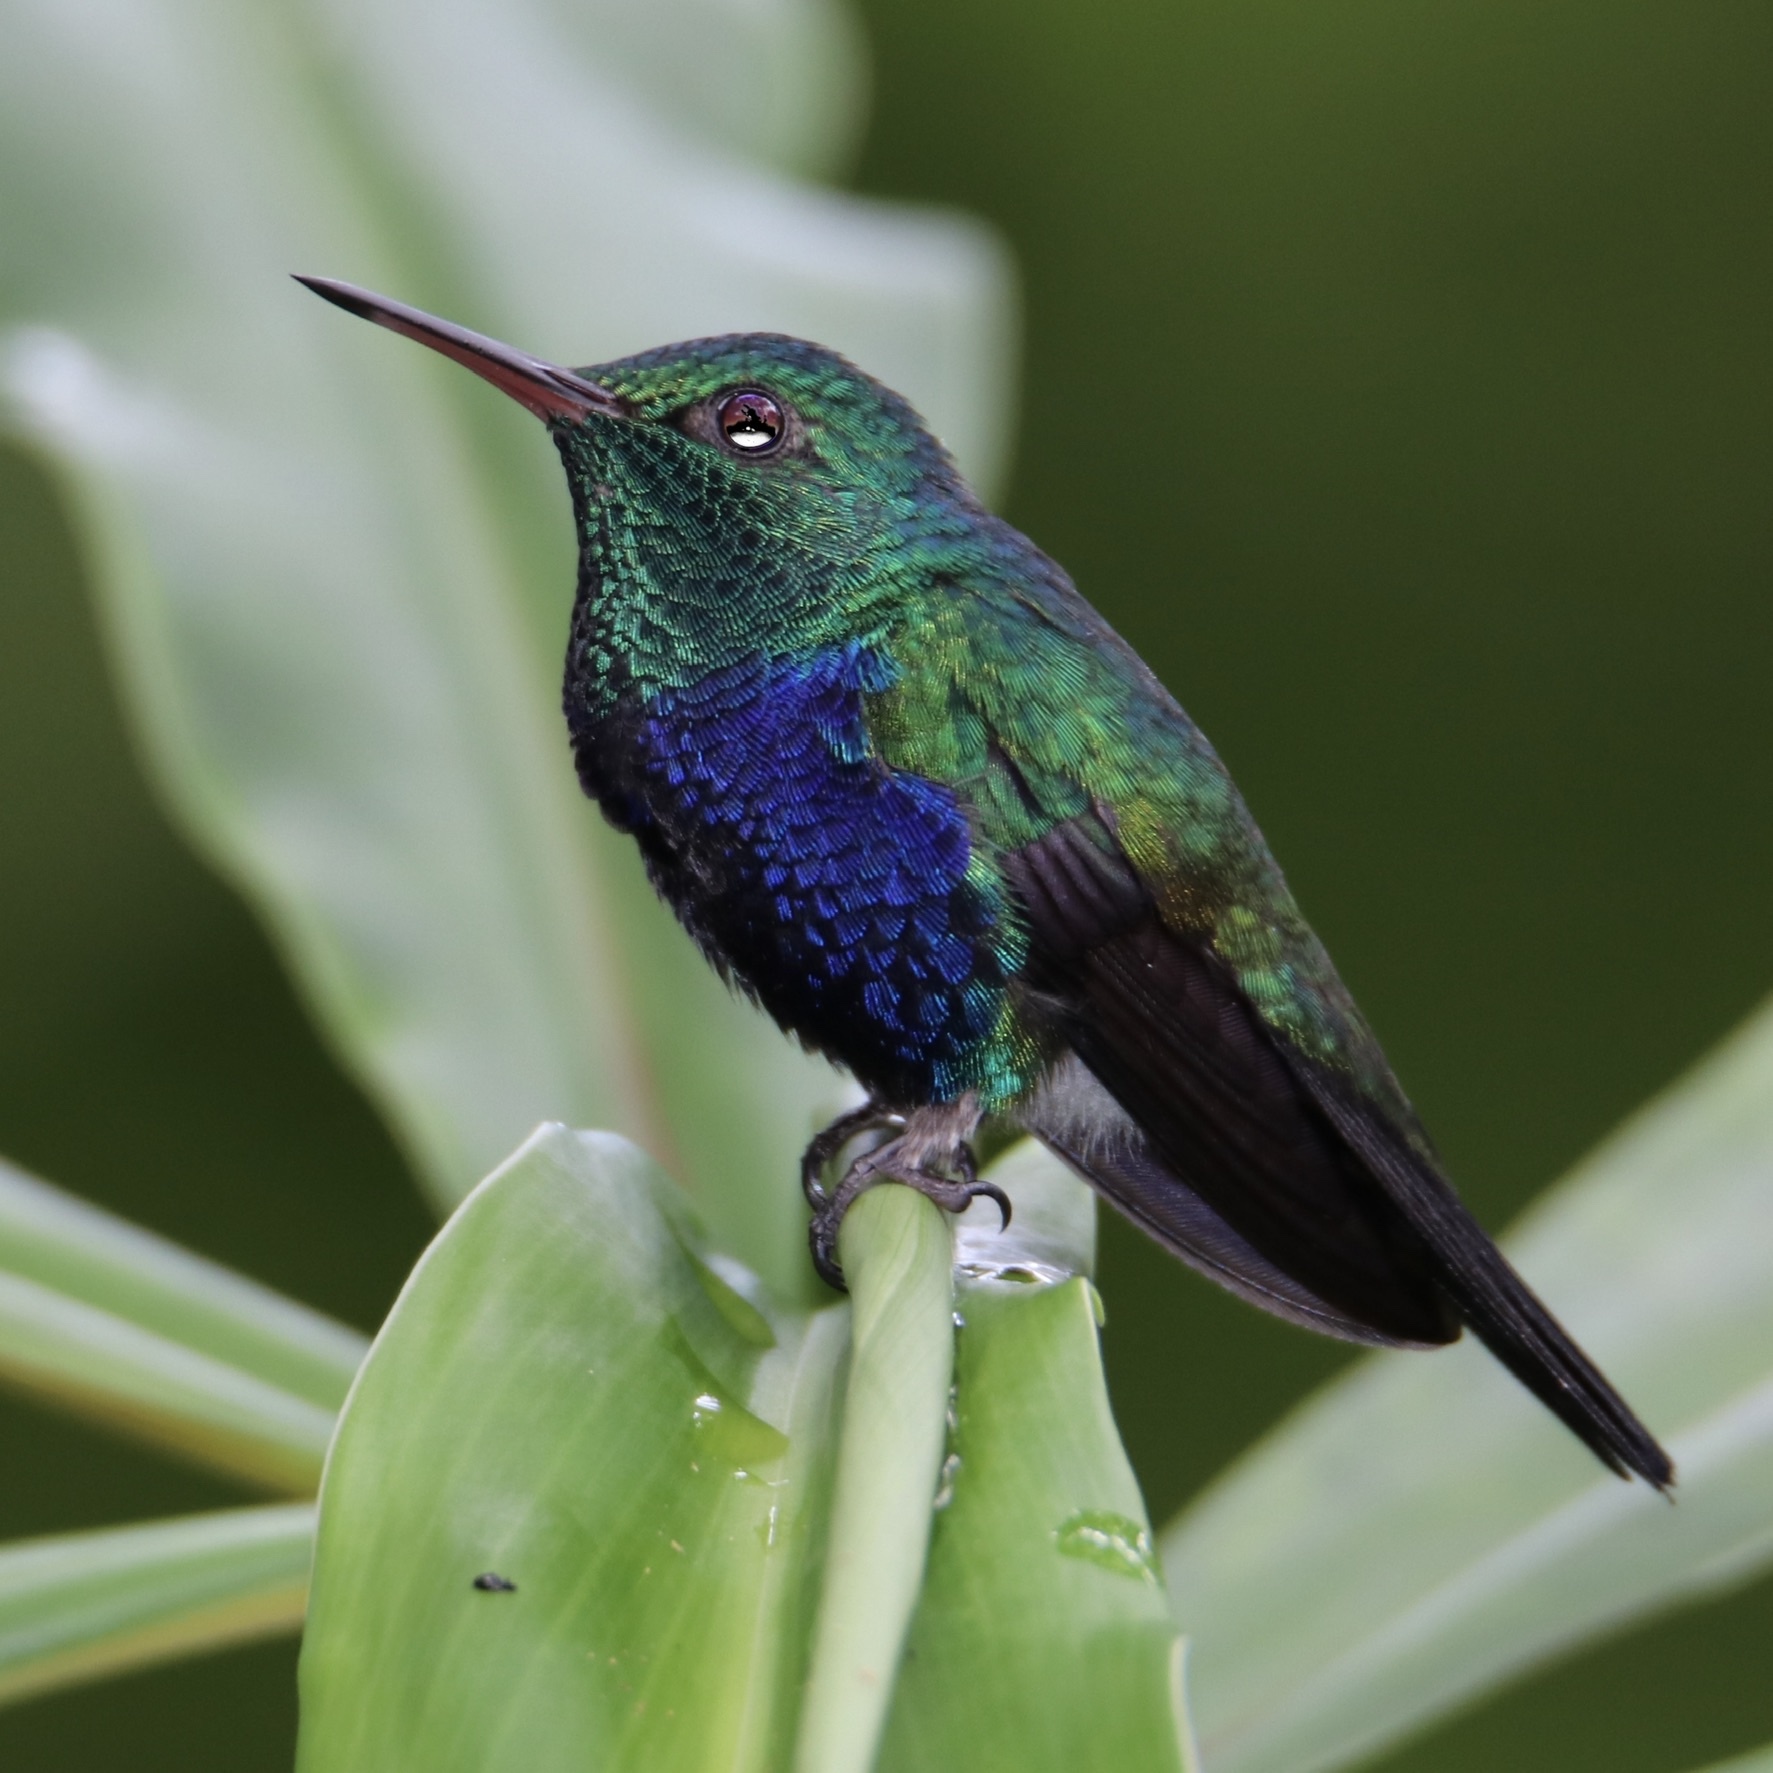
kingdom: Animalia
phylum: Chordata
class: Aves
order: Apodiformes
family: Trochilidae
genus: Chlorestes
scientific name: Chlorestes julie
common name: Violet-bellied hummingbird
